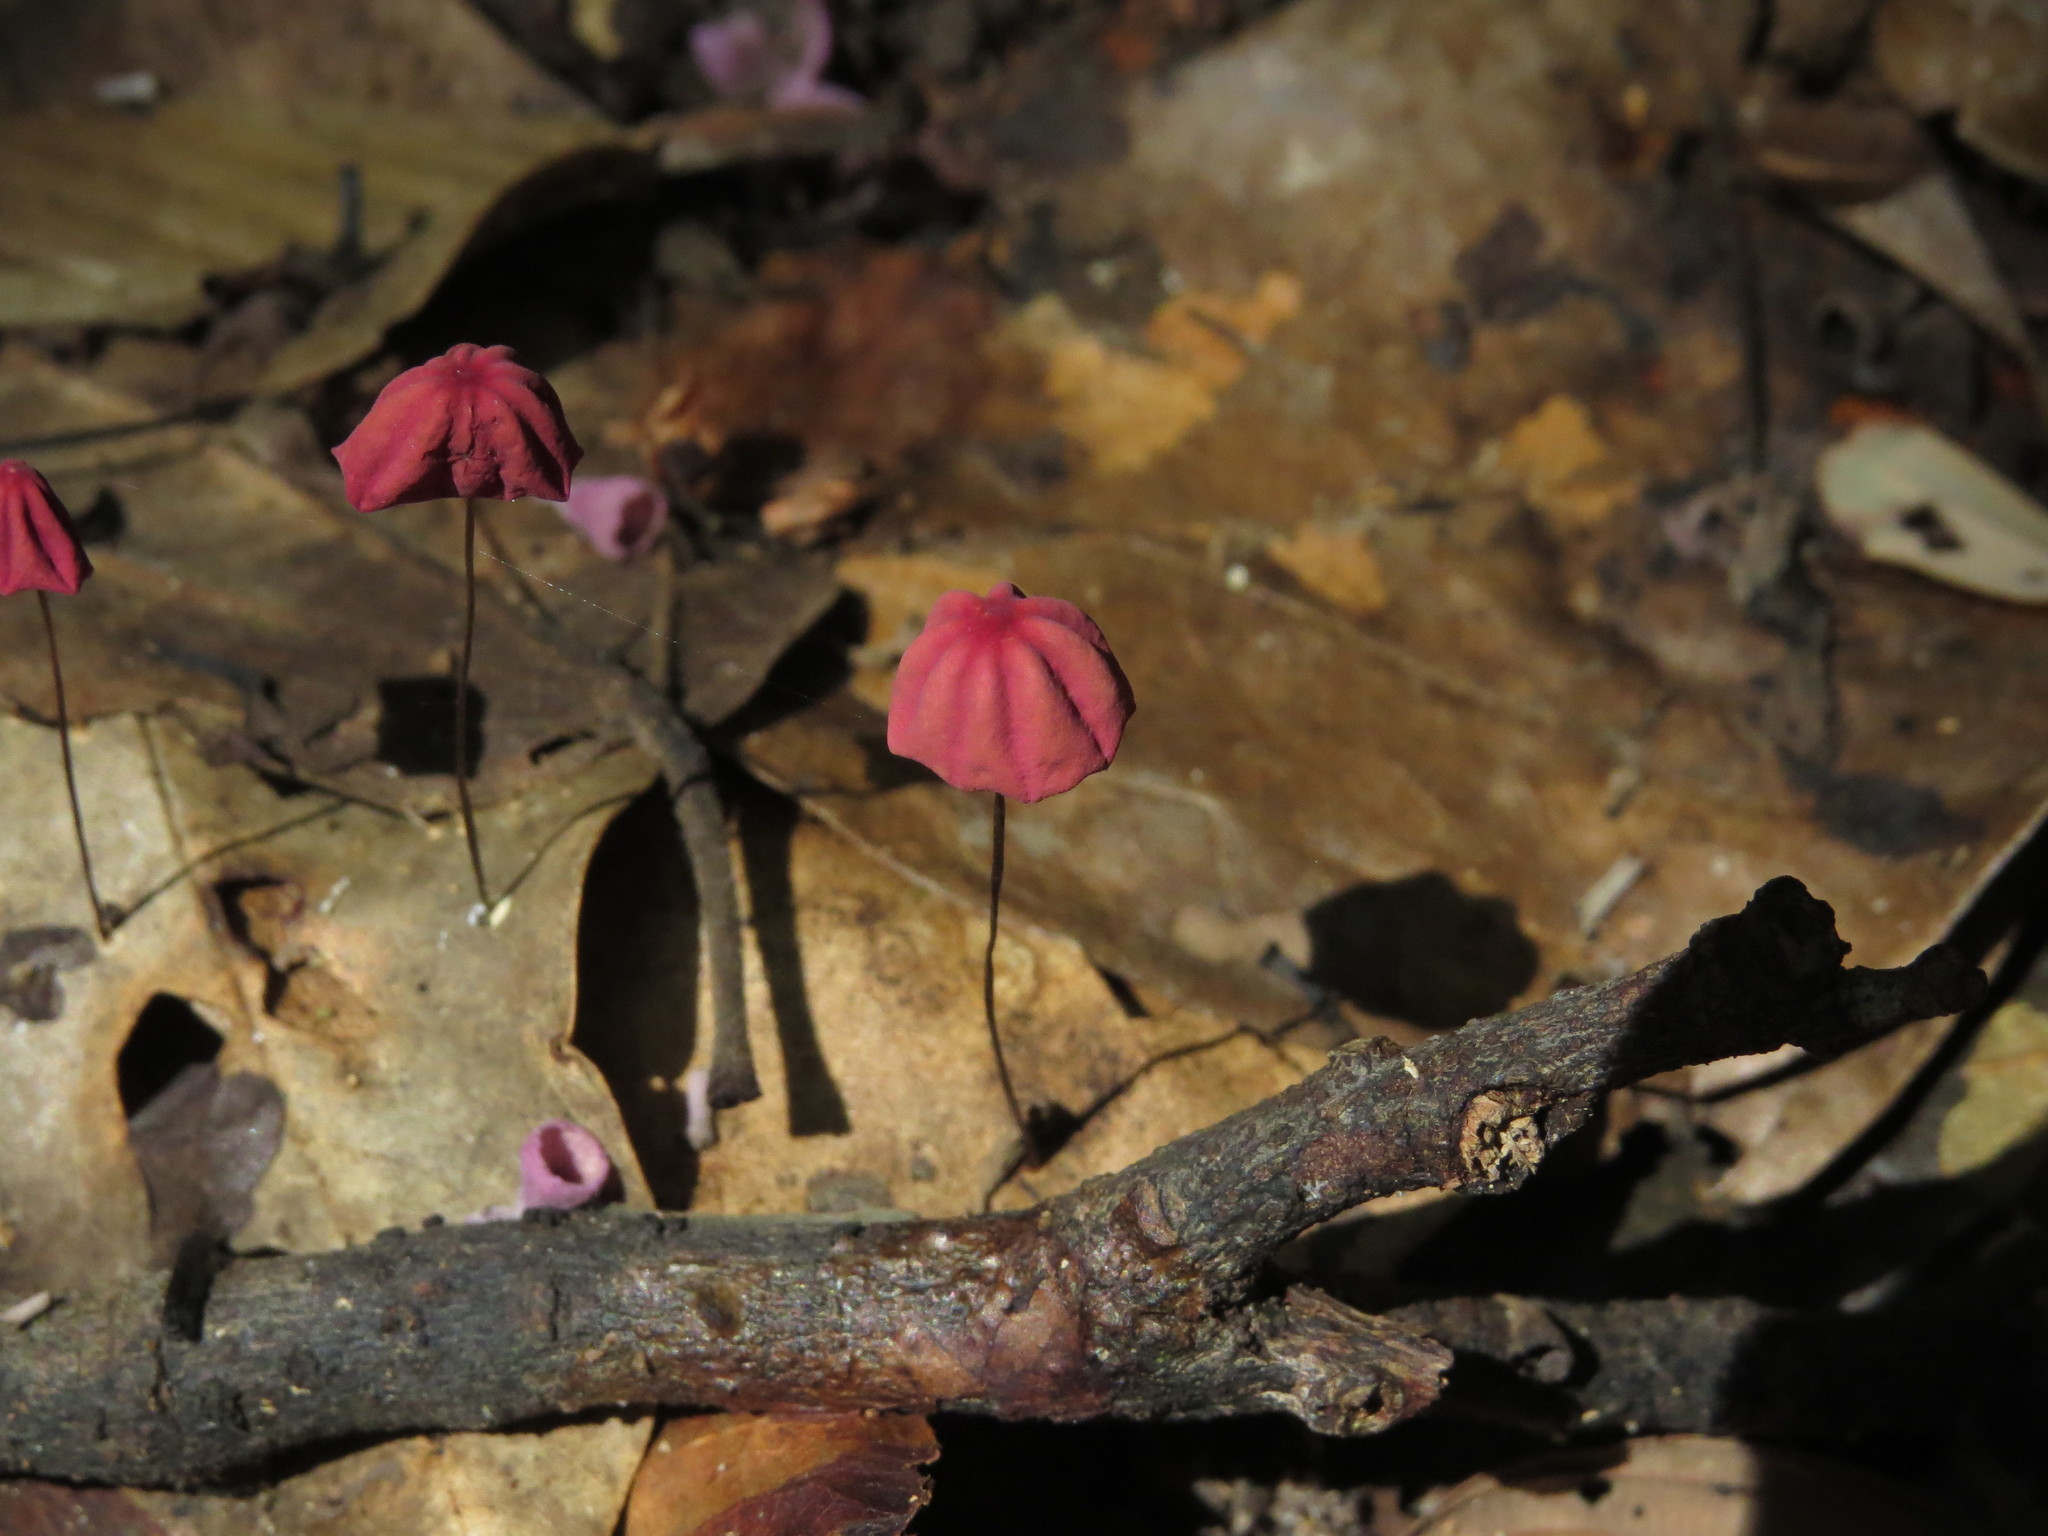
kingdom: Fungi
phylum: Basidiomycota
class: Agaricomycetes
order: Agaricales
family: Marasmiaceae
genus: Marasmius
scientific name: Marasmius haematocephalus
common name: Purple pinwheel
